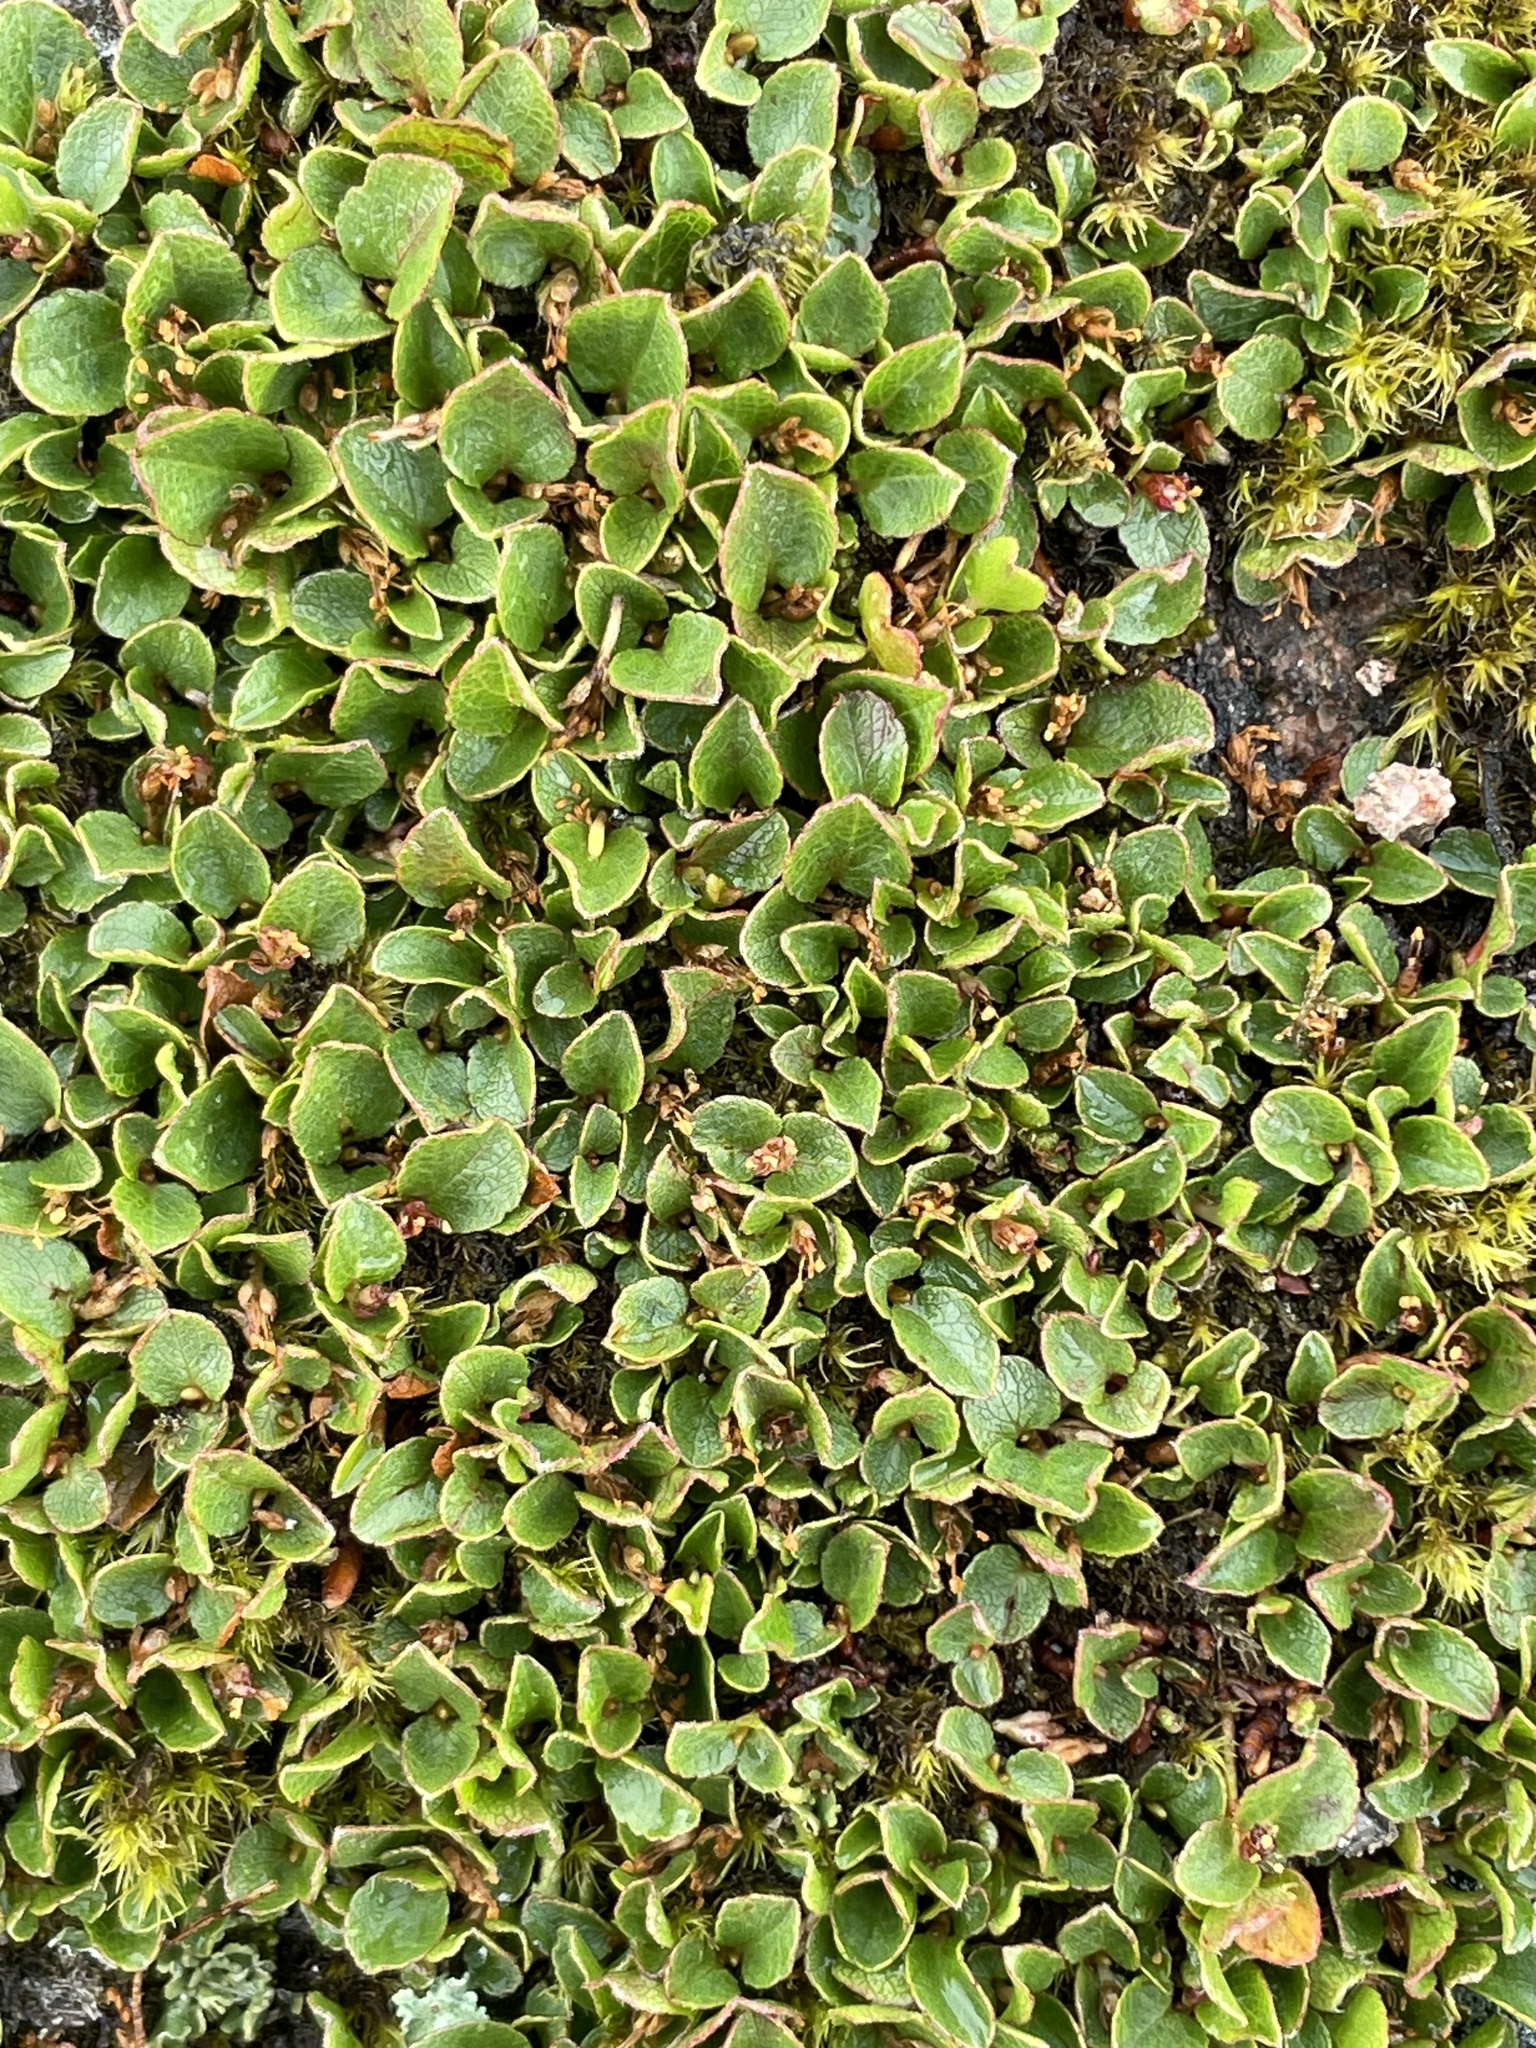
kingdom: Plantae
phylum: Tracheophyta
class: Magnoliopsida
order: Malpighiales
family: Salicaceae
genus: Salix
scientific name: Salix herbacea
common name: Dwarf willow
